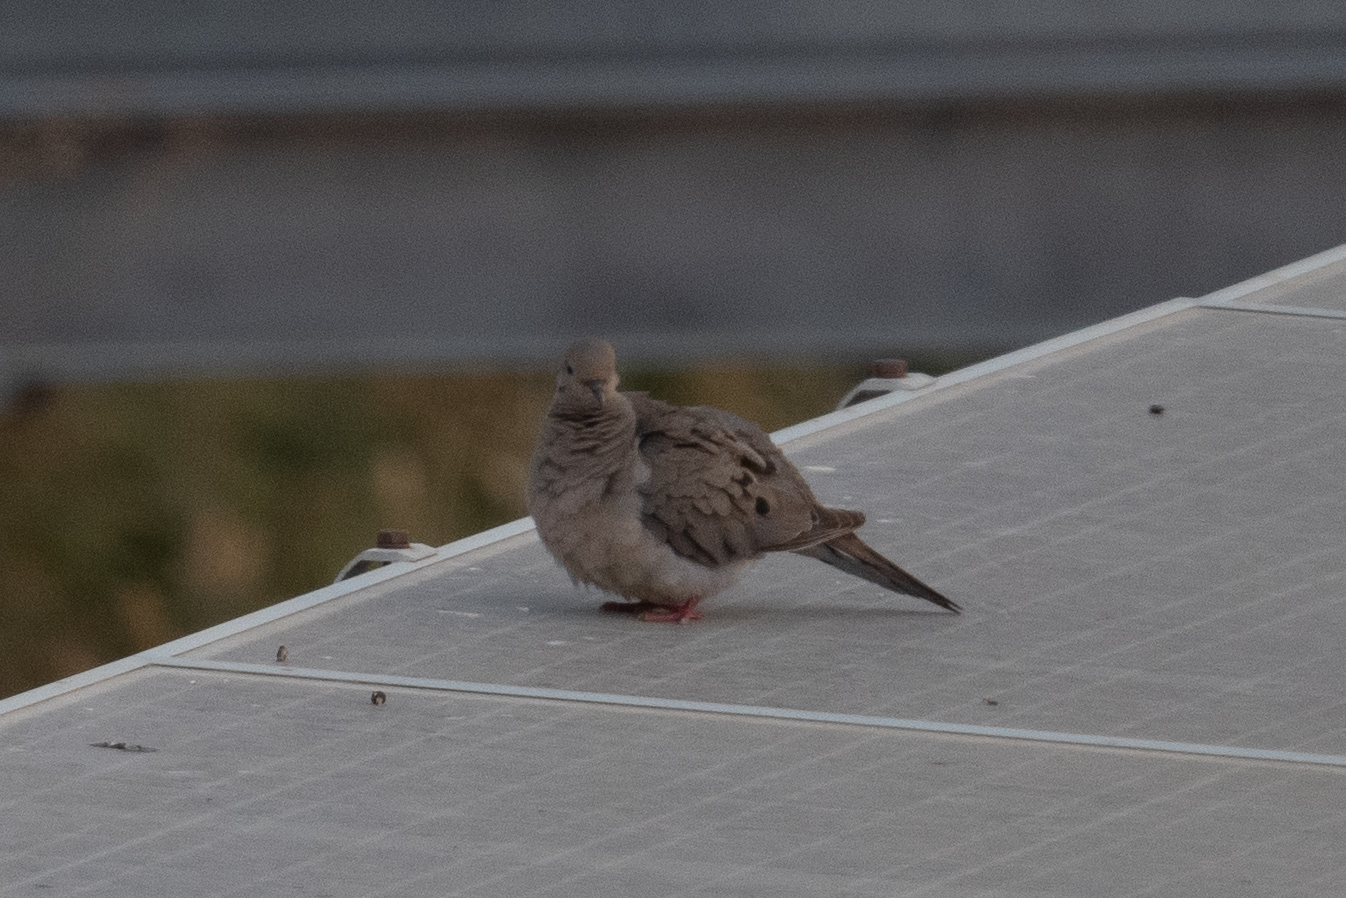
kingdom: Animalia
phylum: Chordata
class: Aves
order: Columbiformes
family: Columbidae
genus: Zenaida
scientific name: Zenaida macroura
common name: Mourning dove
